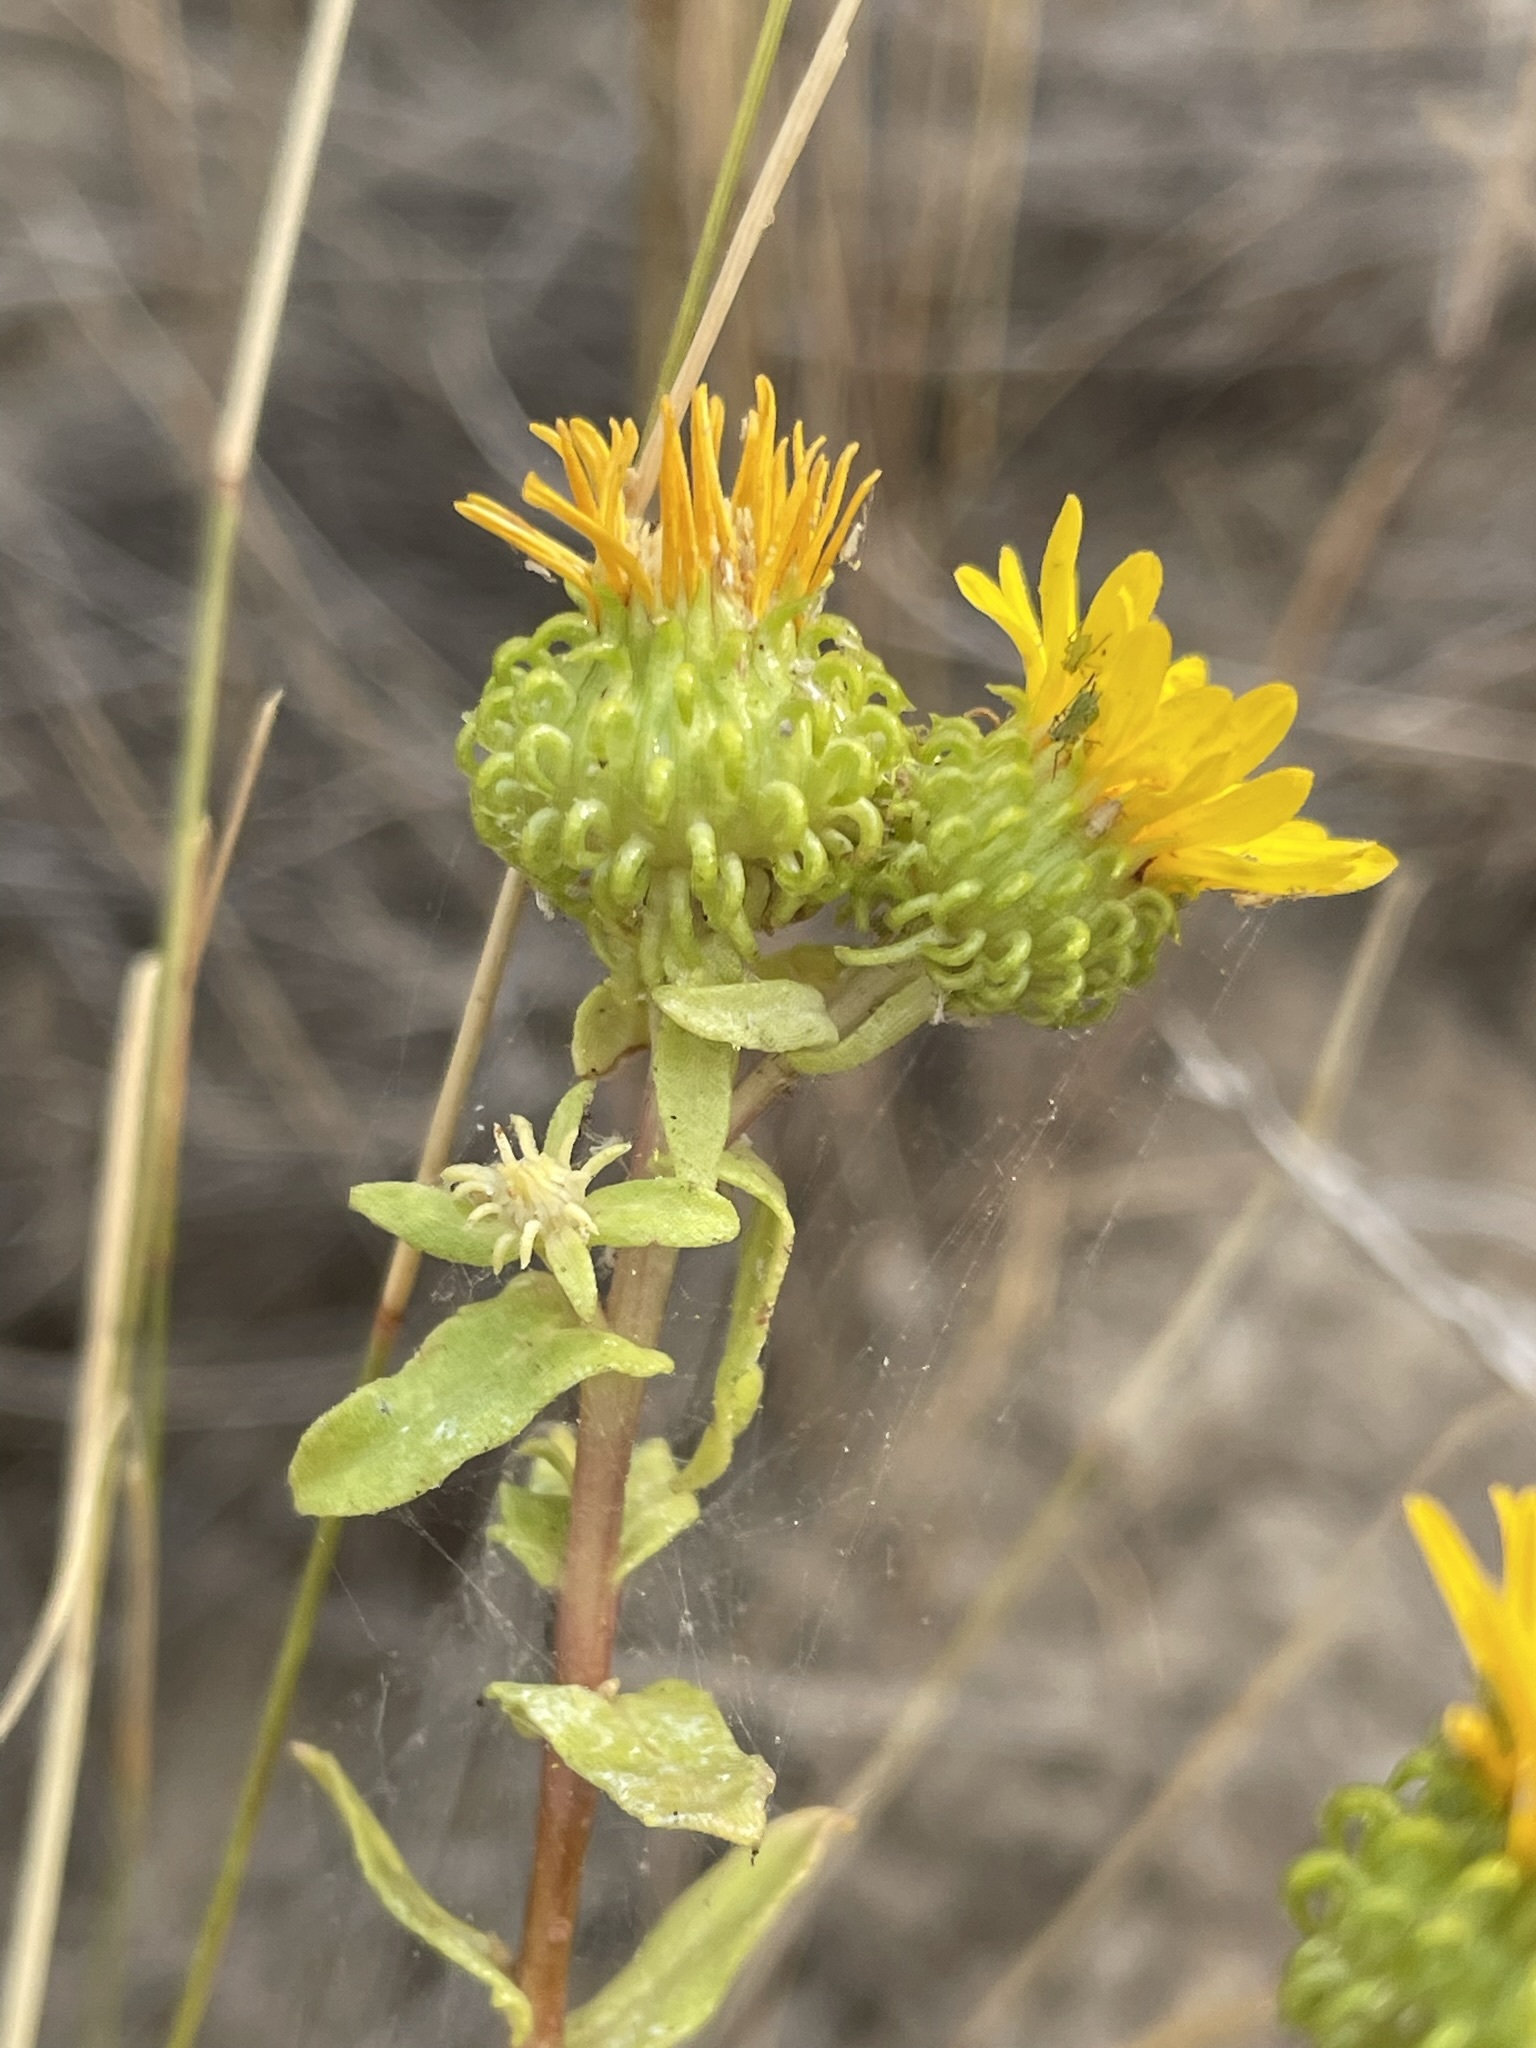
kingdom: Plantae
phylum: Tracheophyta
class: Magnoliopsida
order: Asterales
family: Asteraceae
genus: Grindelia
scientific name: Grindelia squarrosa
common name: Curly-cup gumweed
